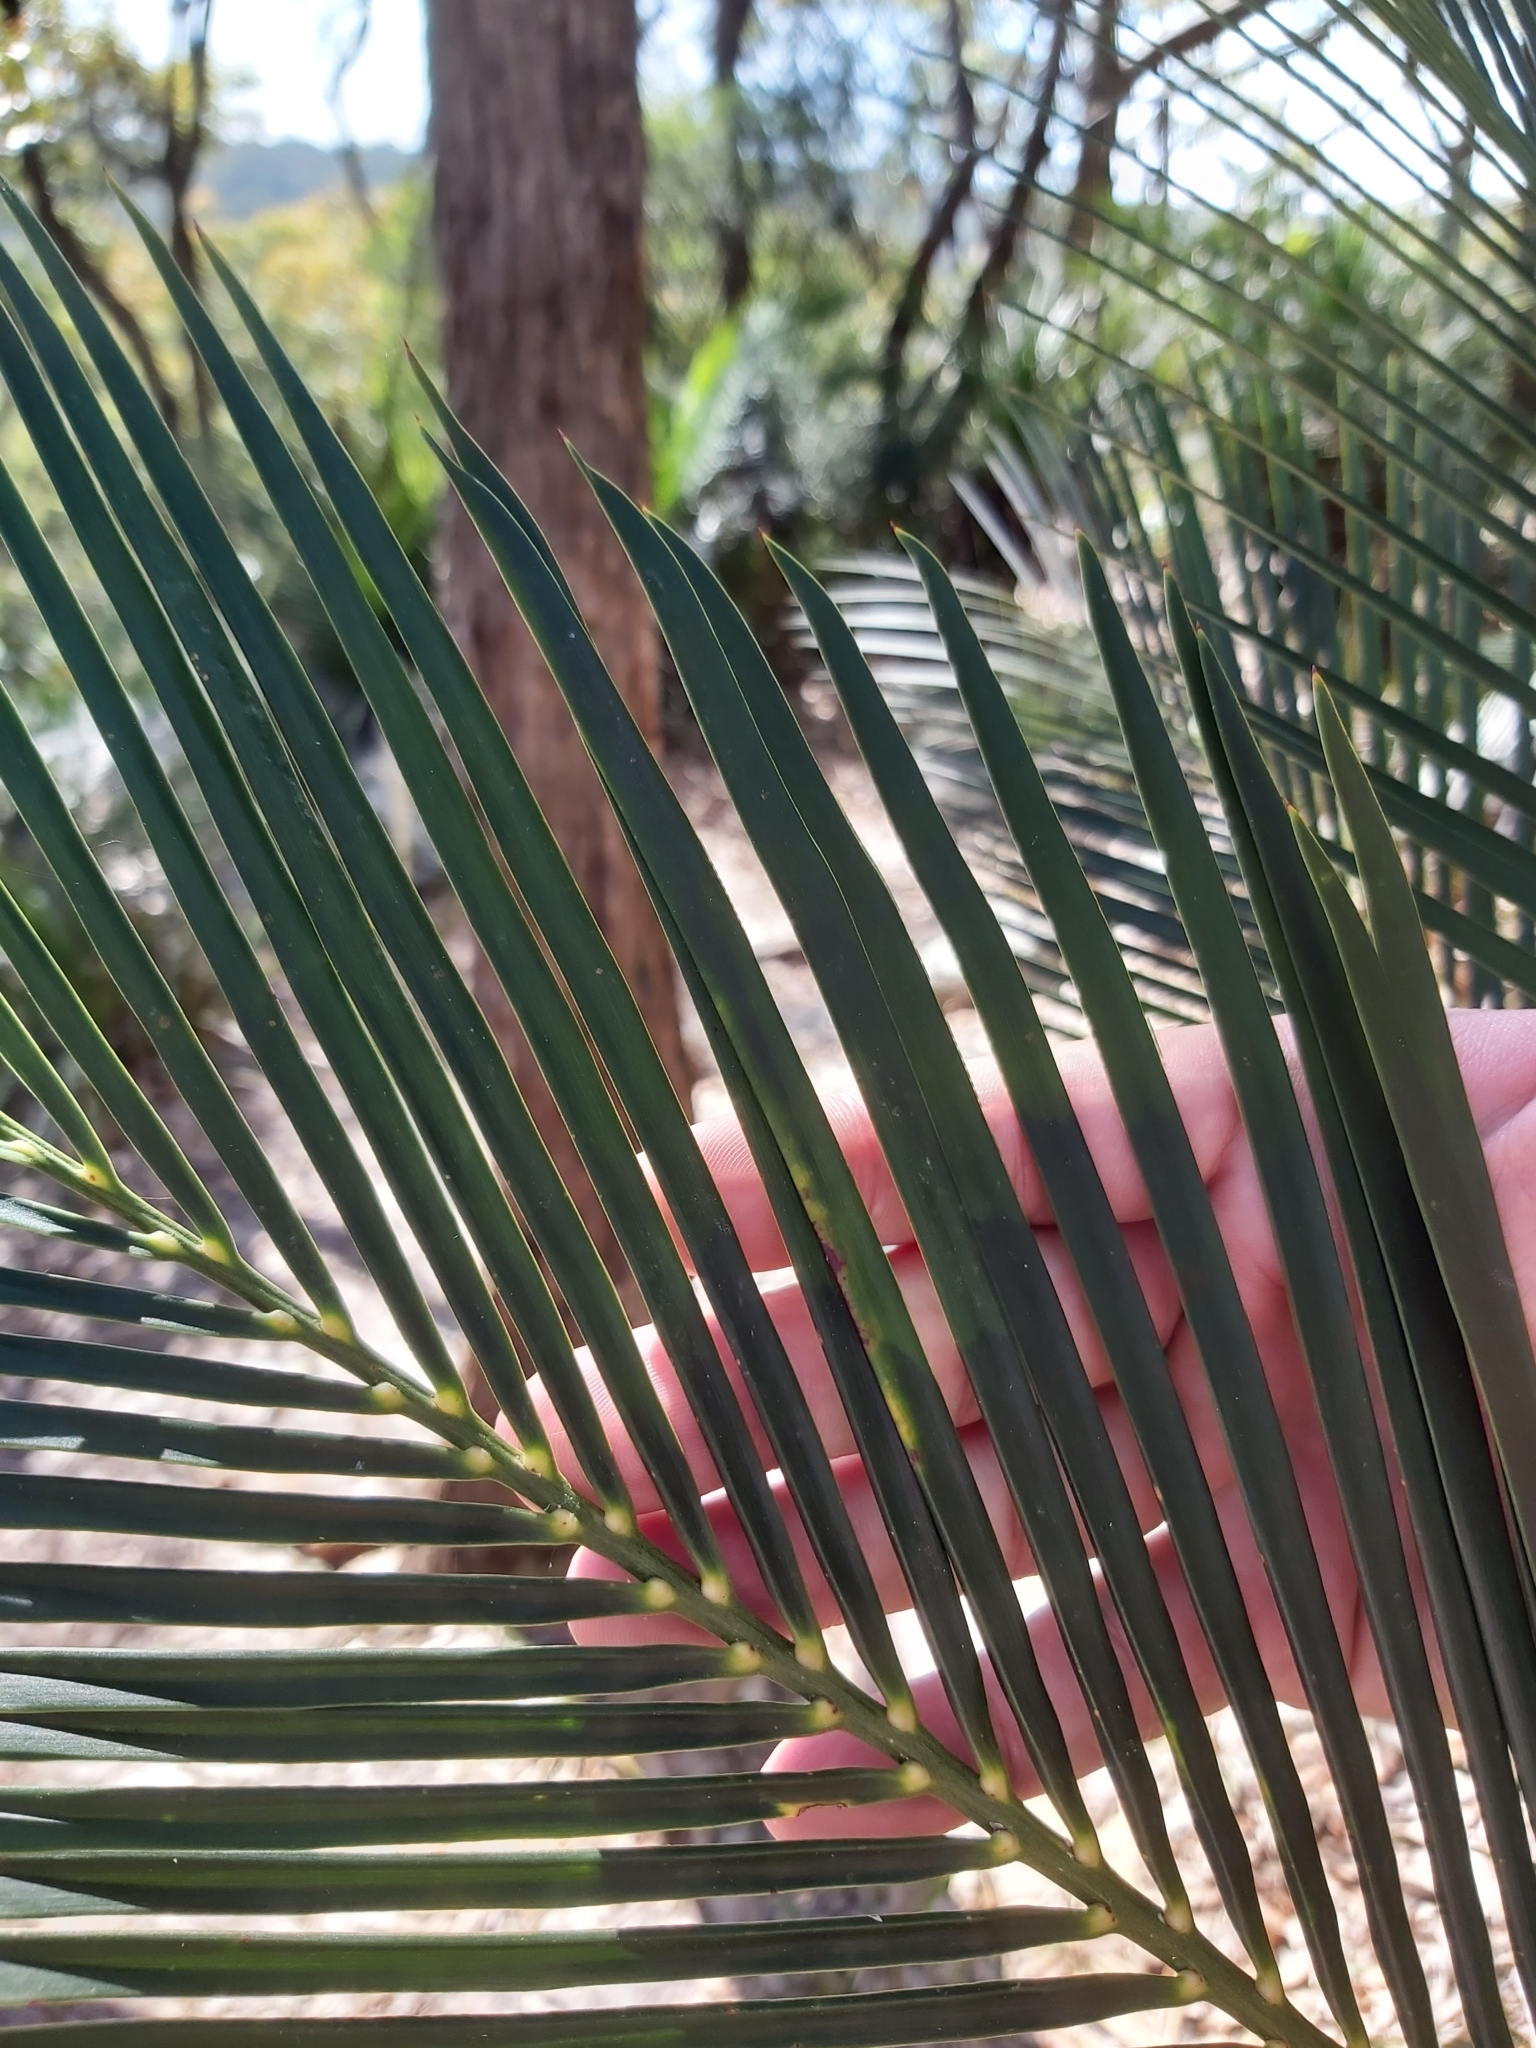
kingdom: Plantae
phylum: Tracheophyta
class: Cycadopsida
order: Cycadales
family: Zamiaceae
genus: Macrozamia
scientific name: Macrozamia communis
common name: Burrawong
